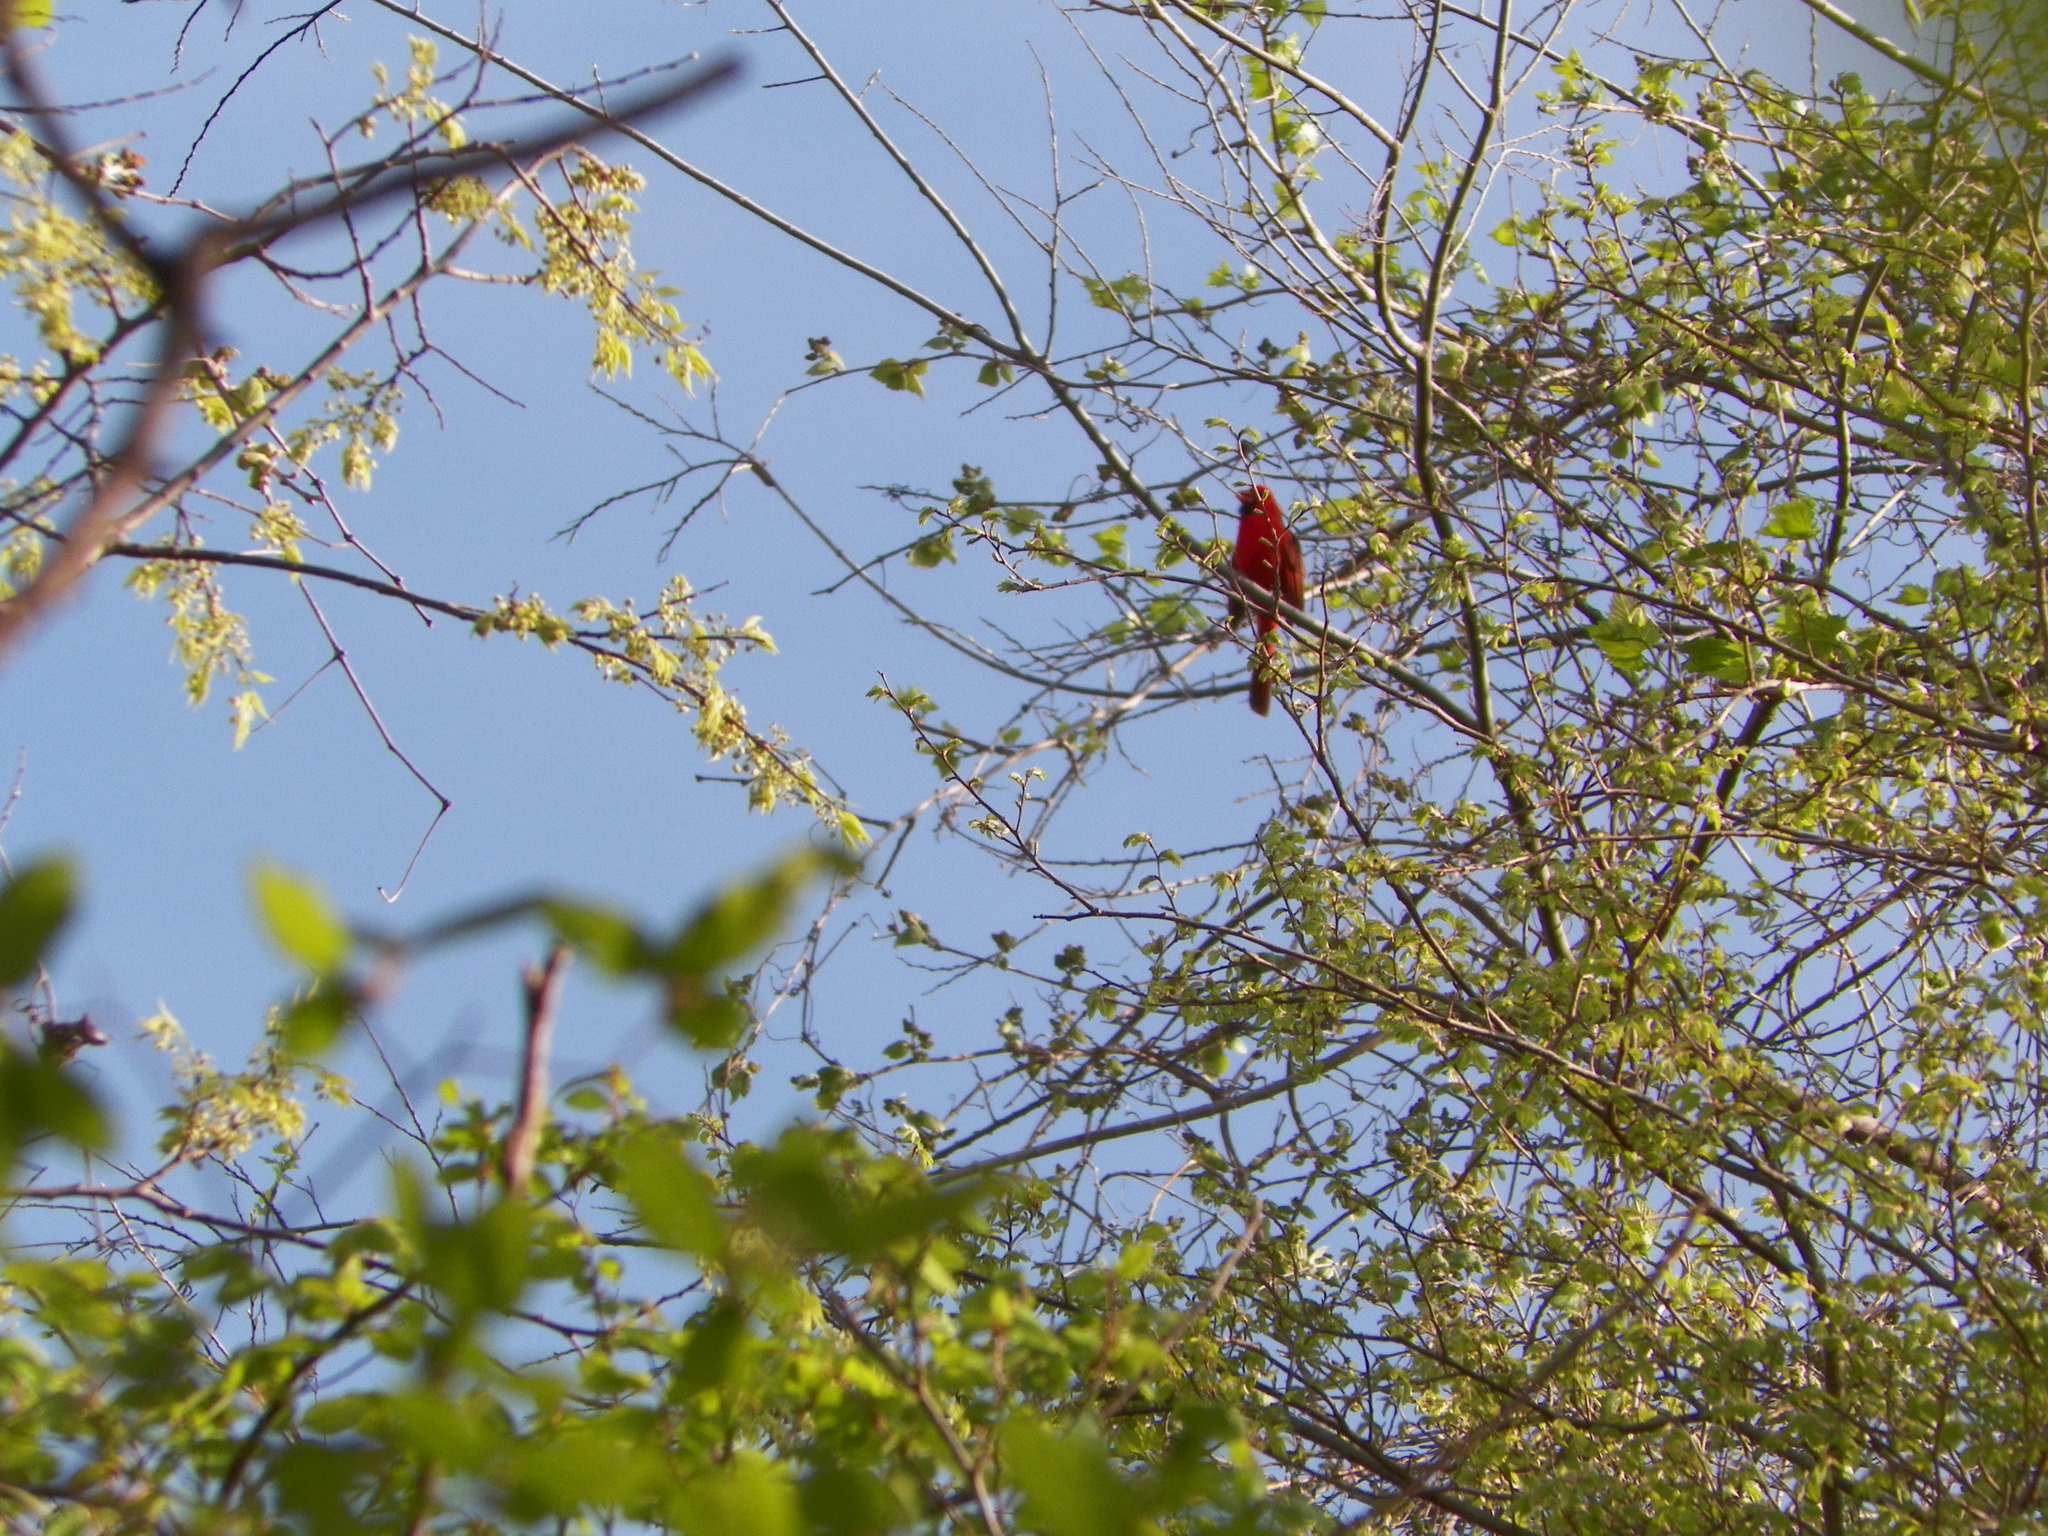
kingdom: Animalia
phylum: Chordata
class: Aves
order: Passeriformes
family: Cardinalidae
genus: Cardinalis
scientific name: Cardinalis cardinalis
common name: Northern cardinal
